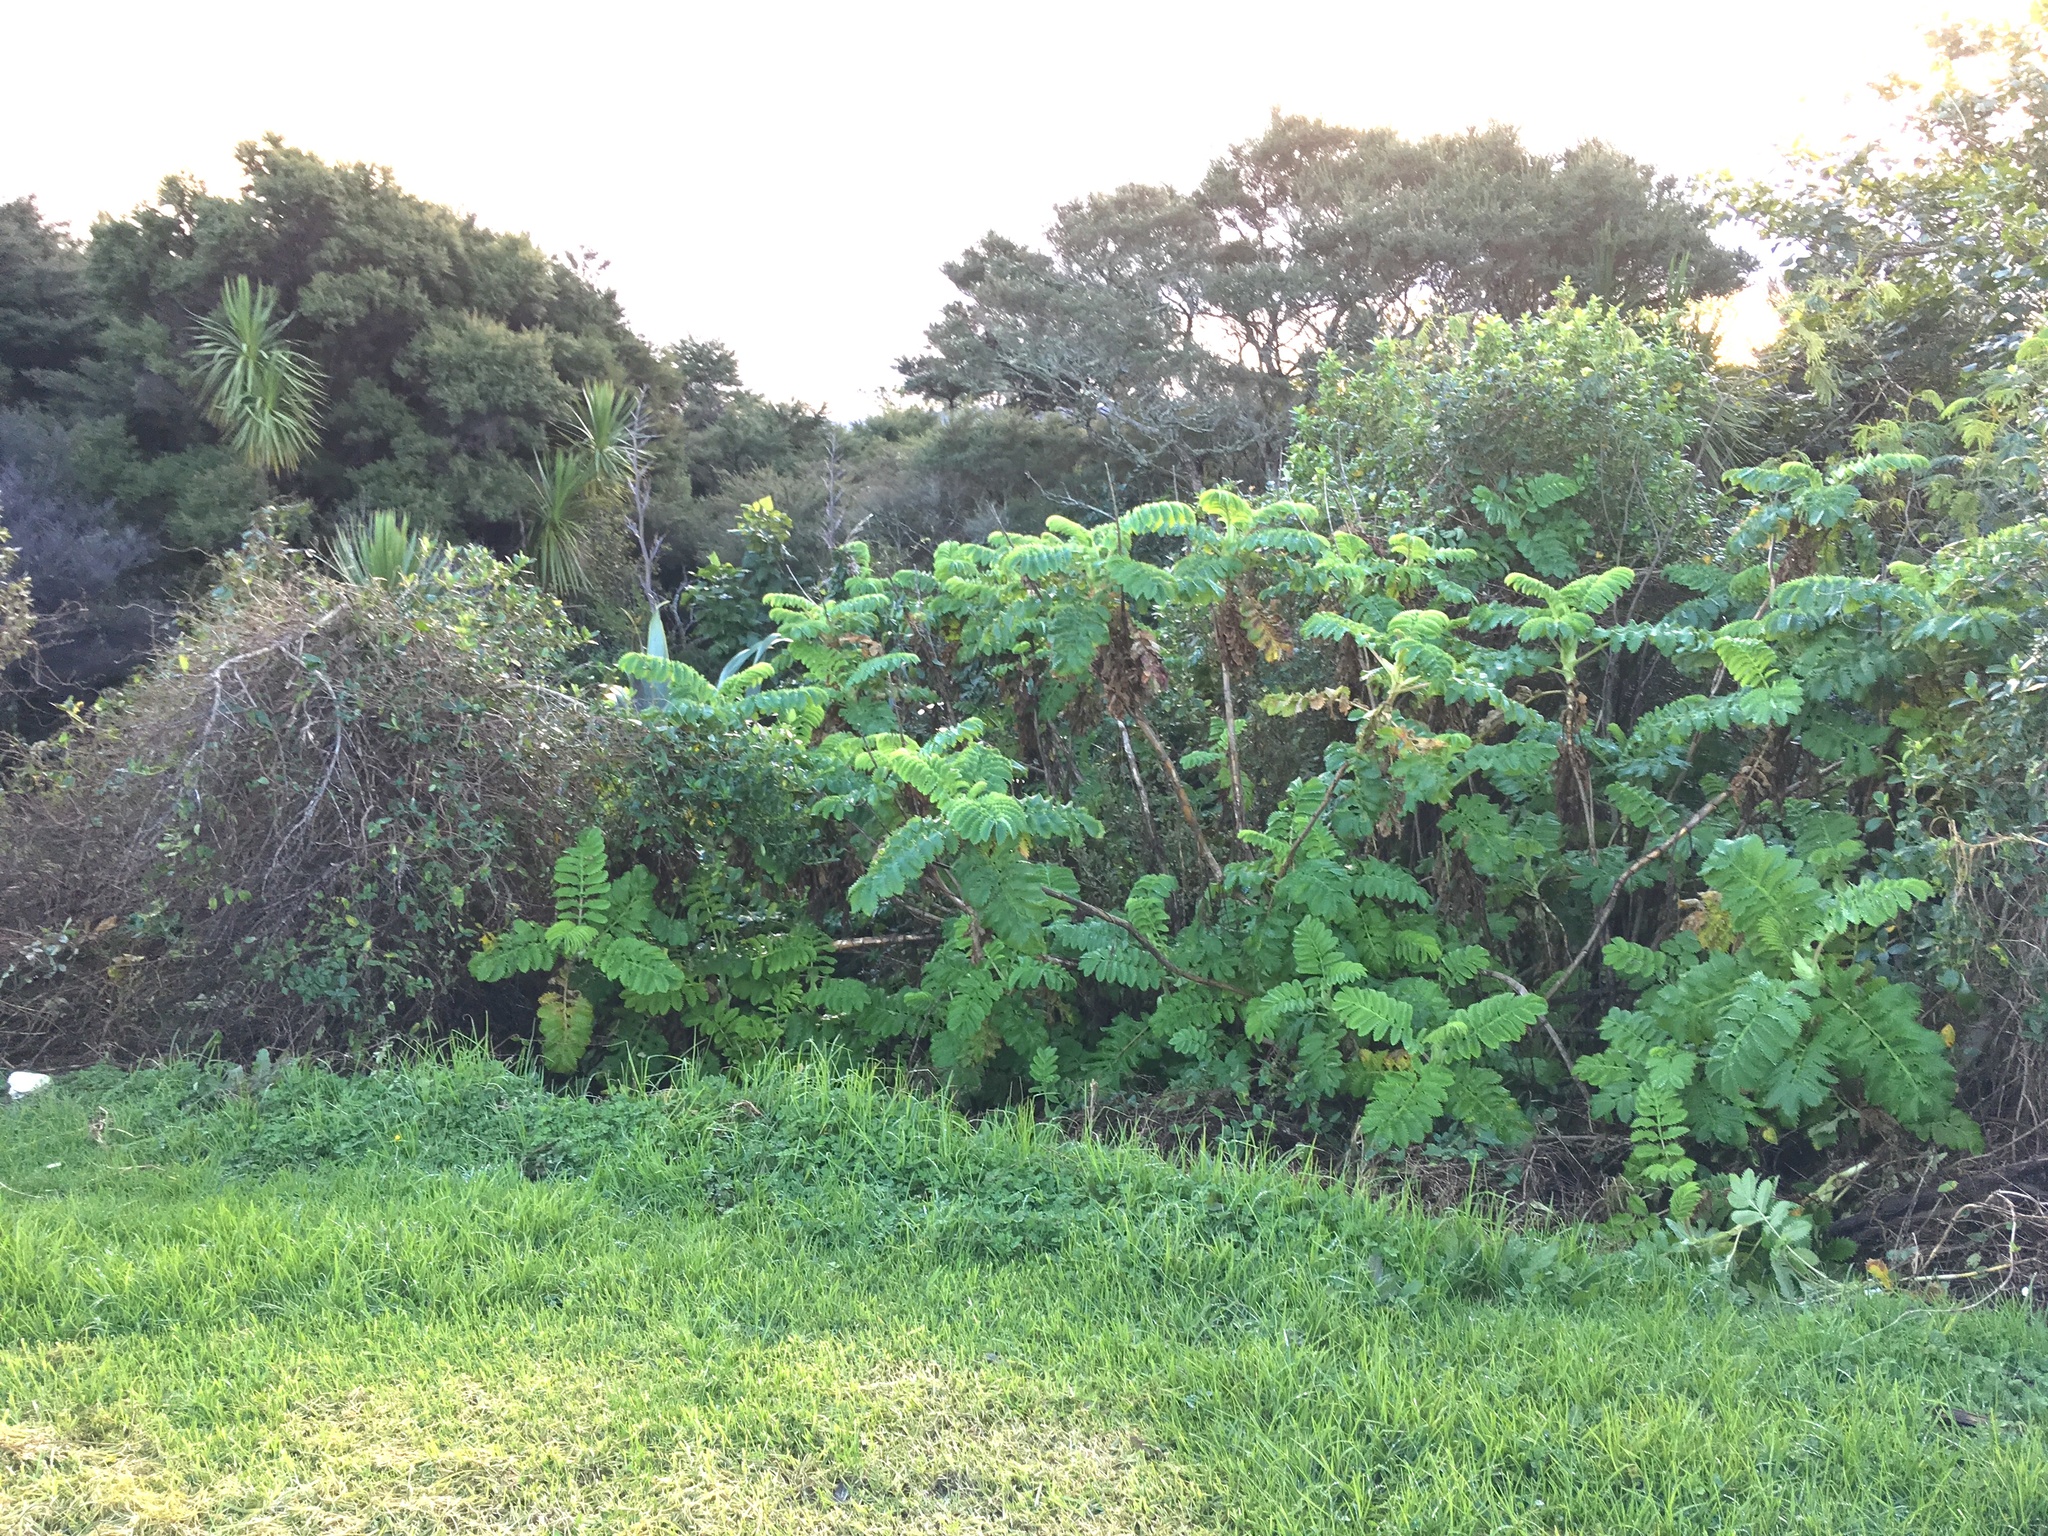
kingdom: Plantae
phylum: Tracheophyta
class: Magnoliopsida
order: Geraniales
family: Melianthaceae
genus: Melianthus
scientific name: Melianthus major
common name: Honey-flower
